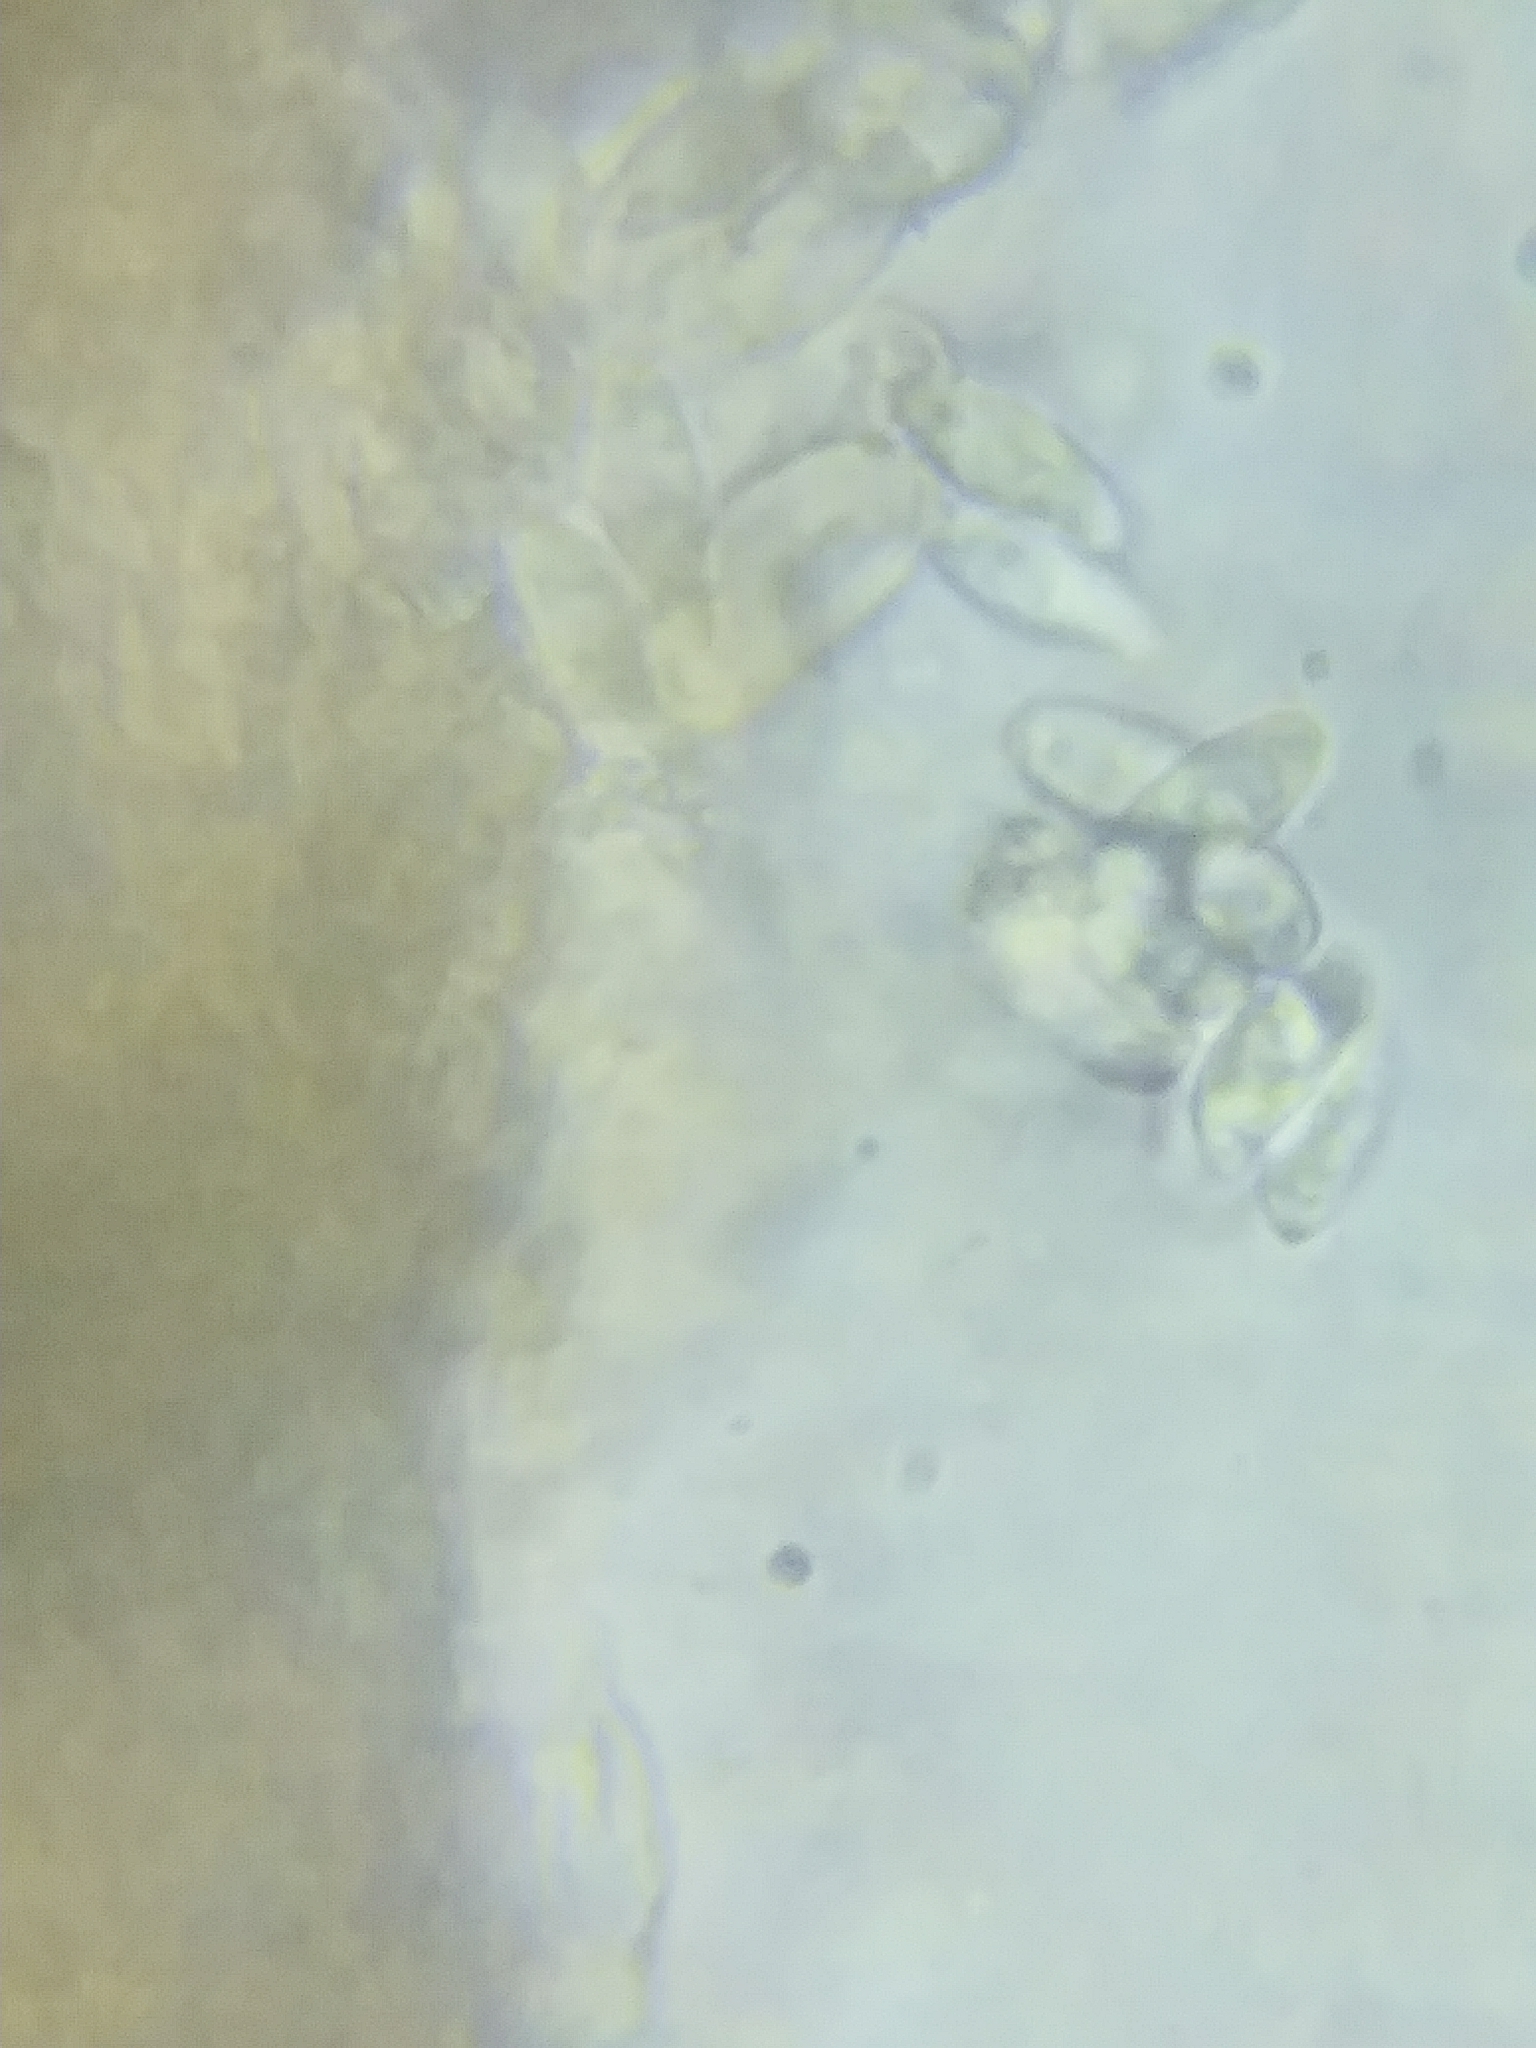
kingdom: Fungi
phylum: Basidiomycota
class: Agaricomycetes
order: Agaricales
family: Marasmiaceae
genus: Marasmius
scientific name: Marasmius strictipes
